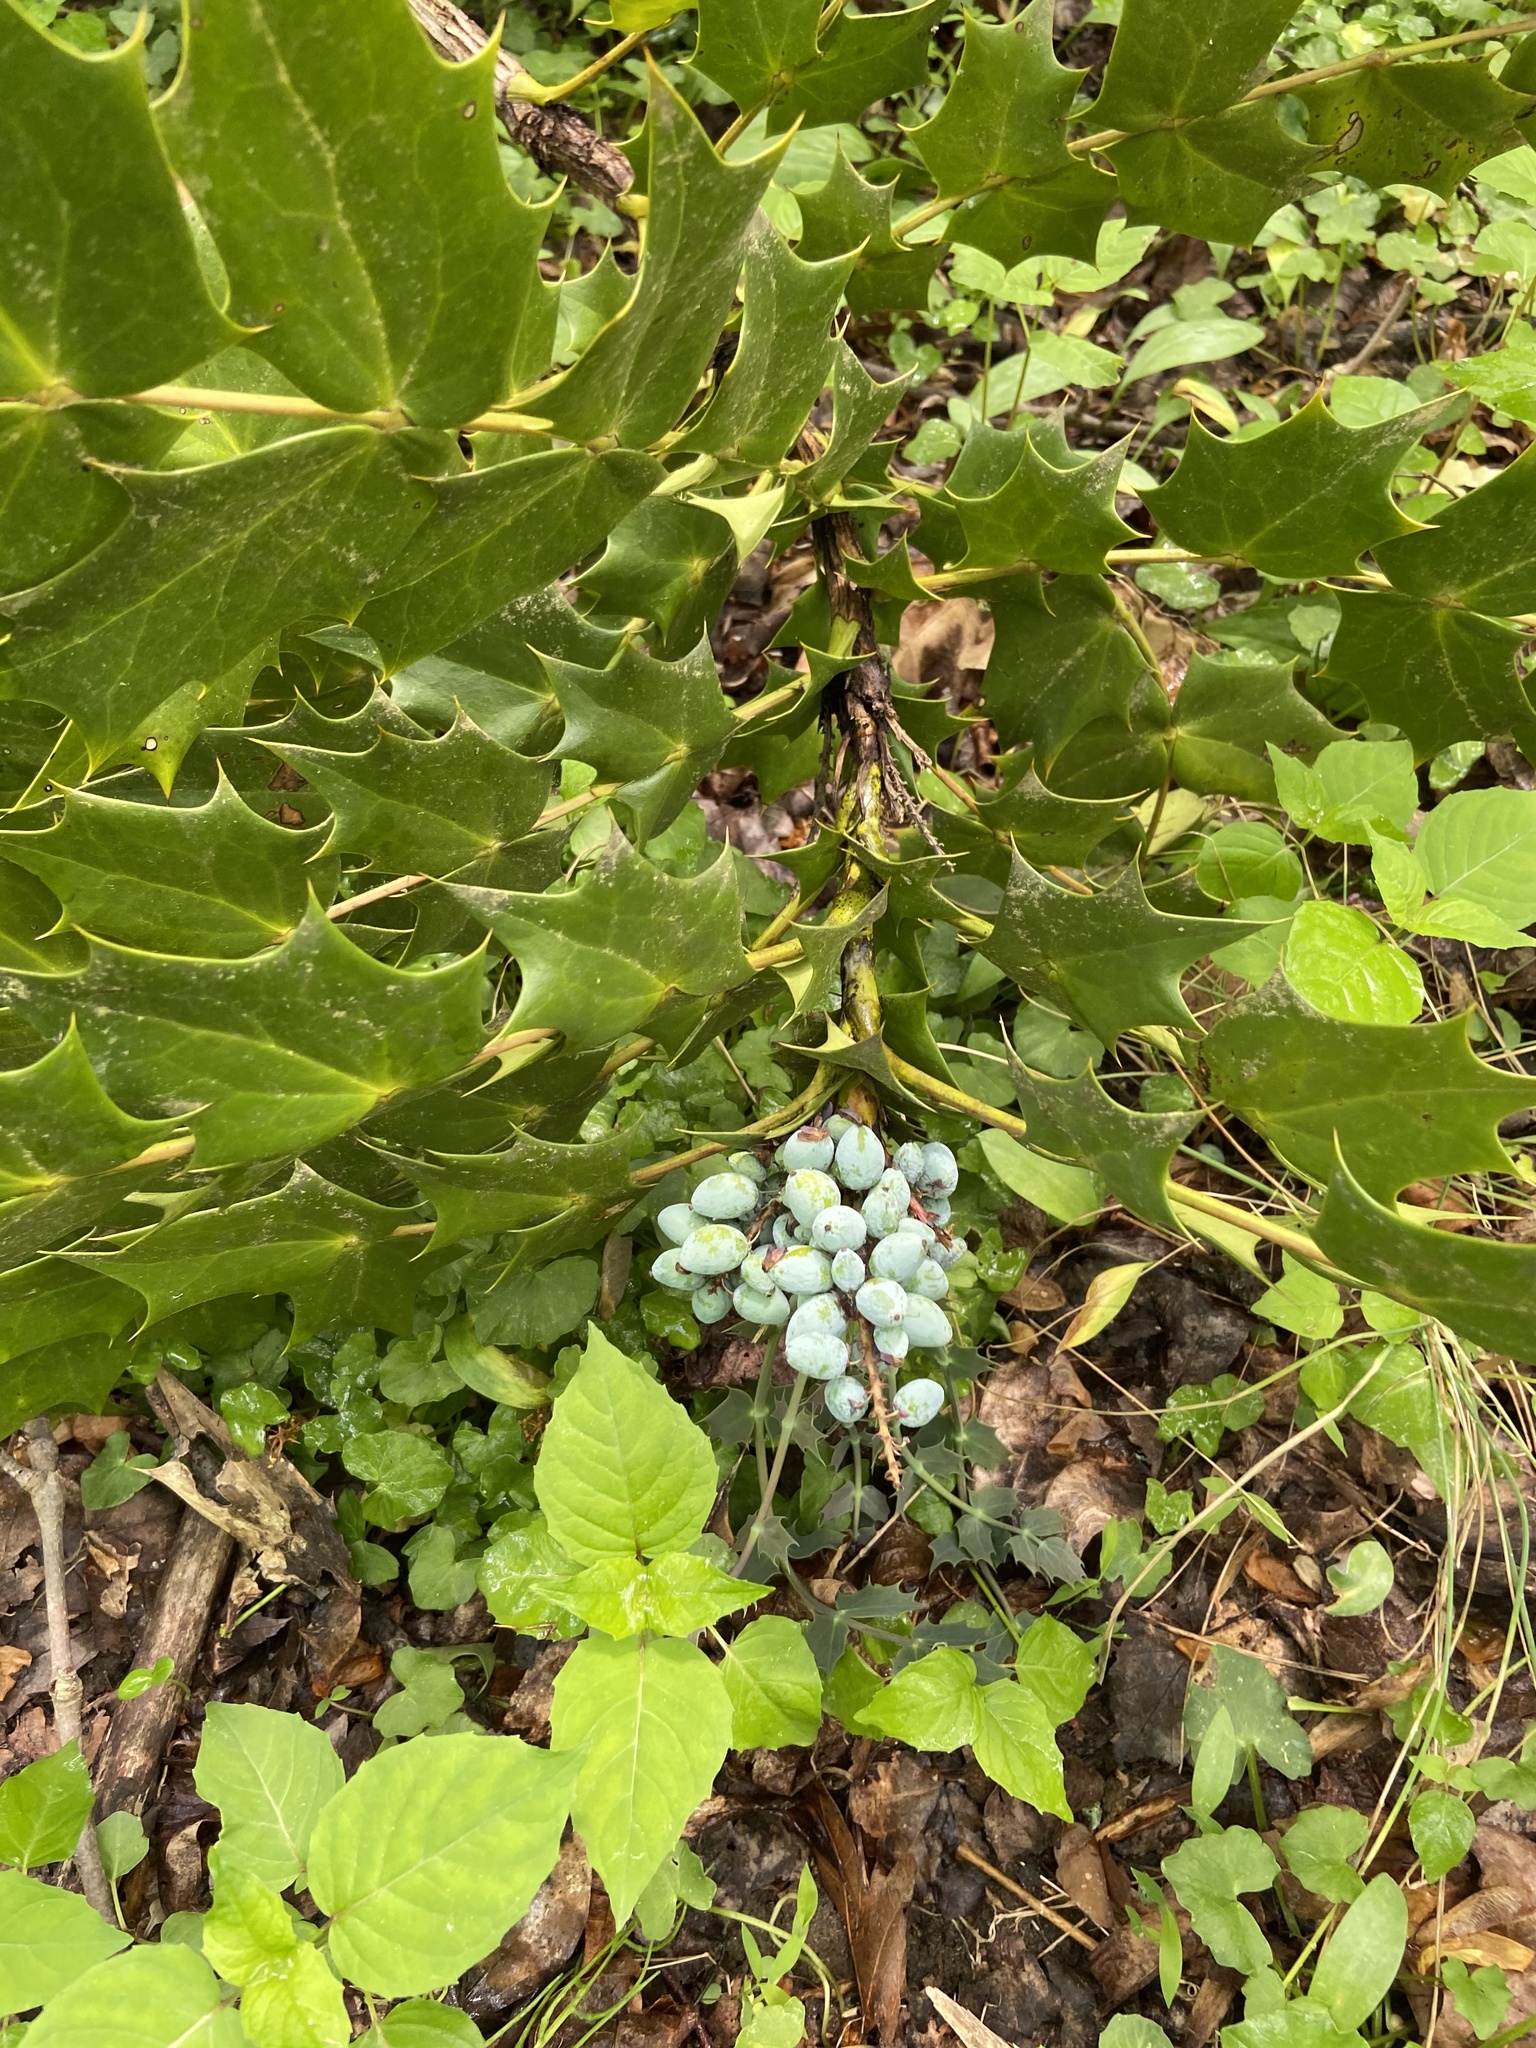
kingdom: Plantae
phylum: Tracheophyta
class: Magnoliopsida
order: Ranunculales
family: Berberidaceae
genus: Mahonia
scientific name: Mahonia bealei
